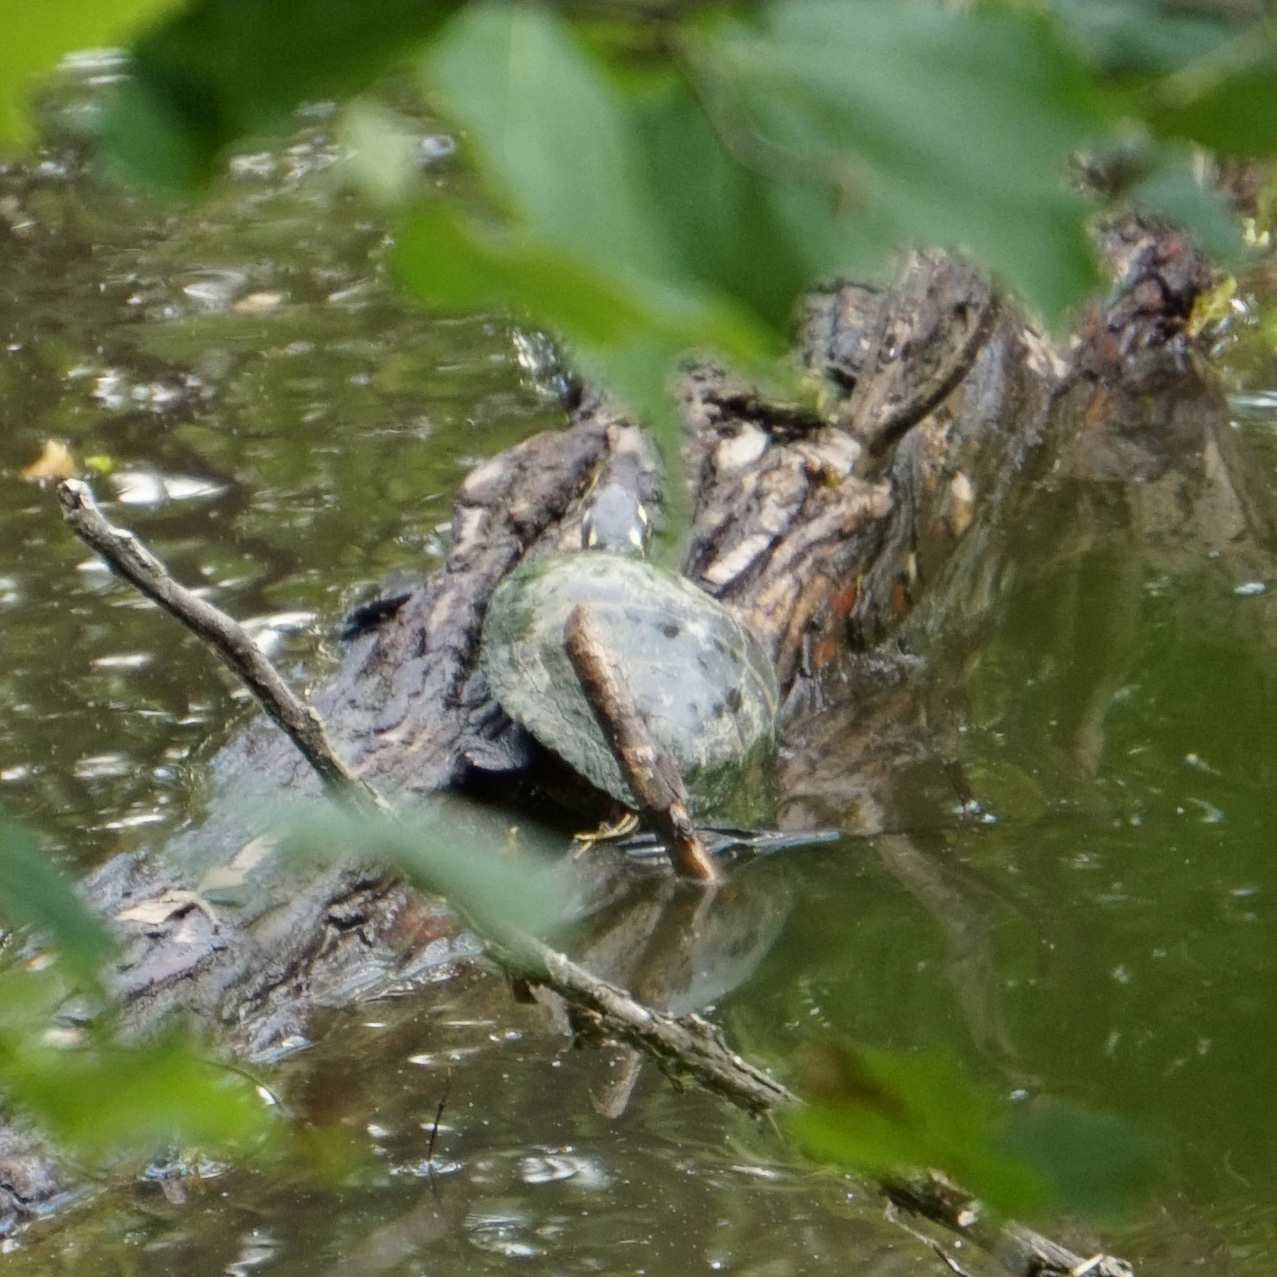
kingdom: Animalia
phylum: Chordata
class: Testudines
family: Emydidae
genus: Chrysemys
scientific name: Chrysemys picta
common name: Painted turtle
